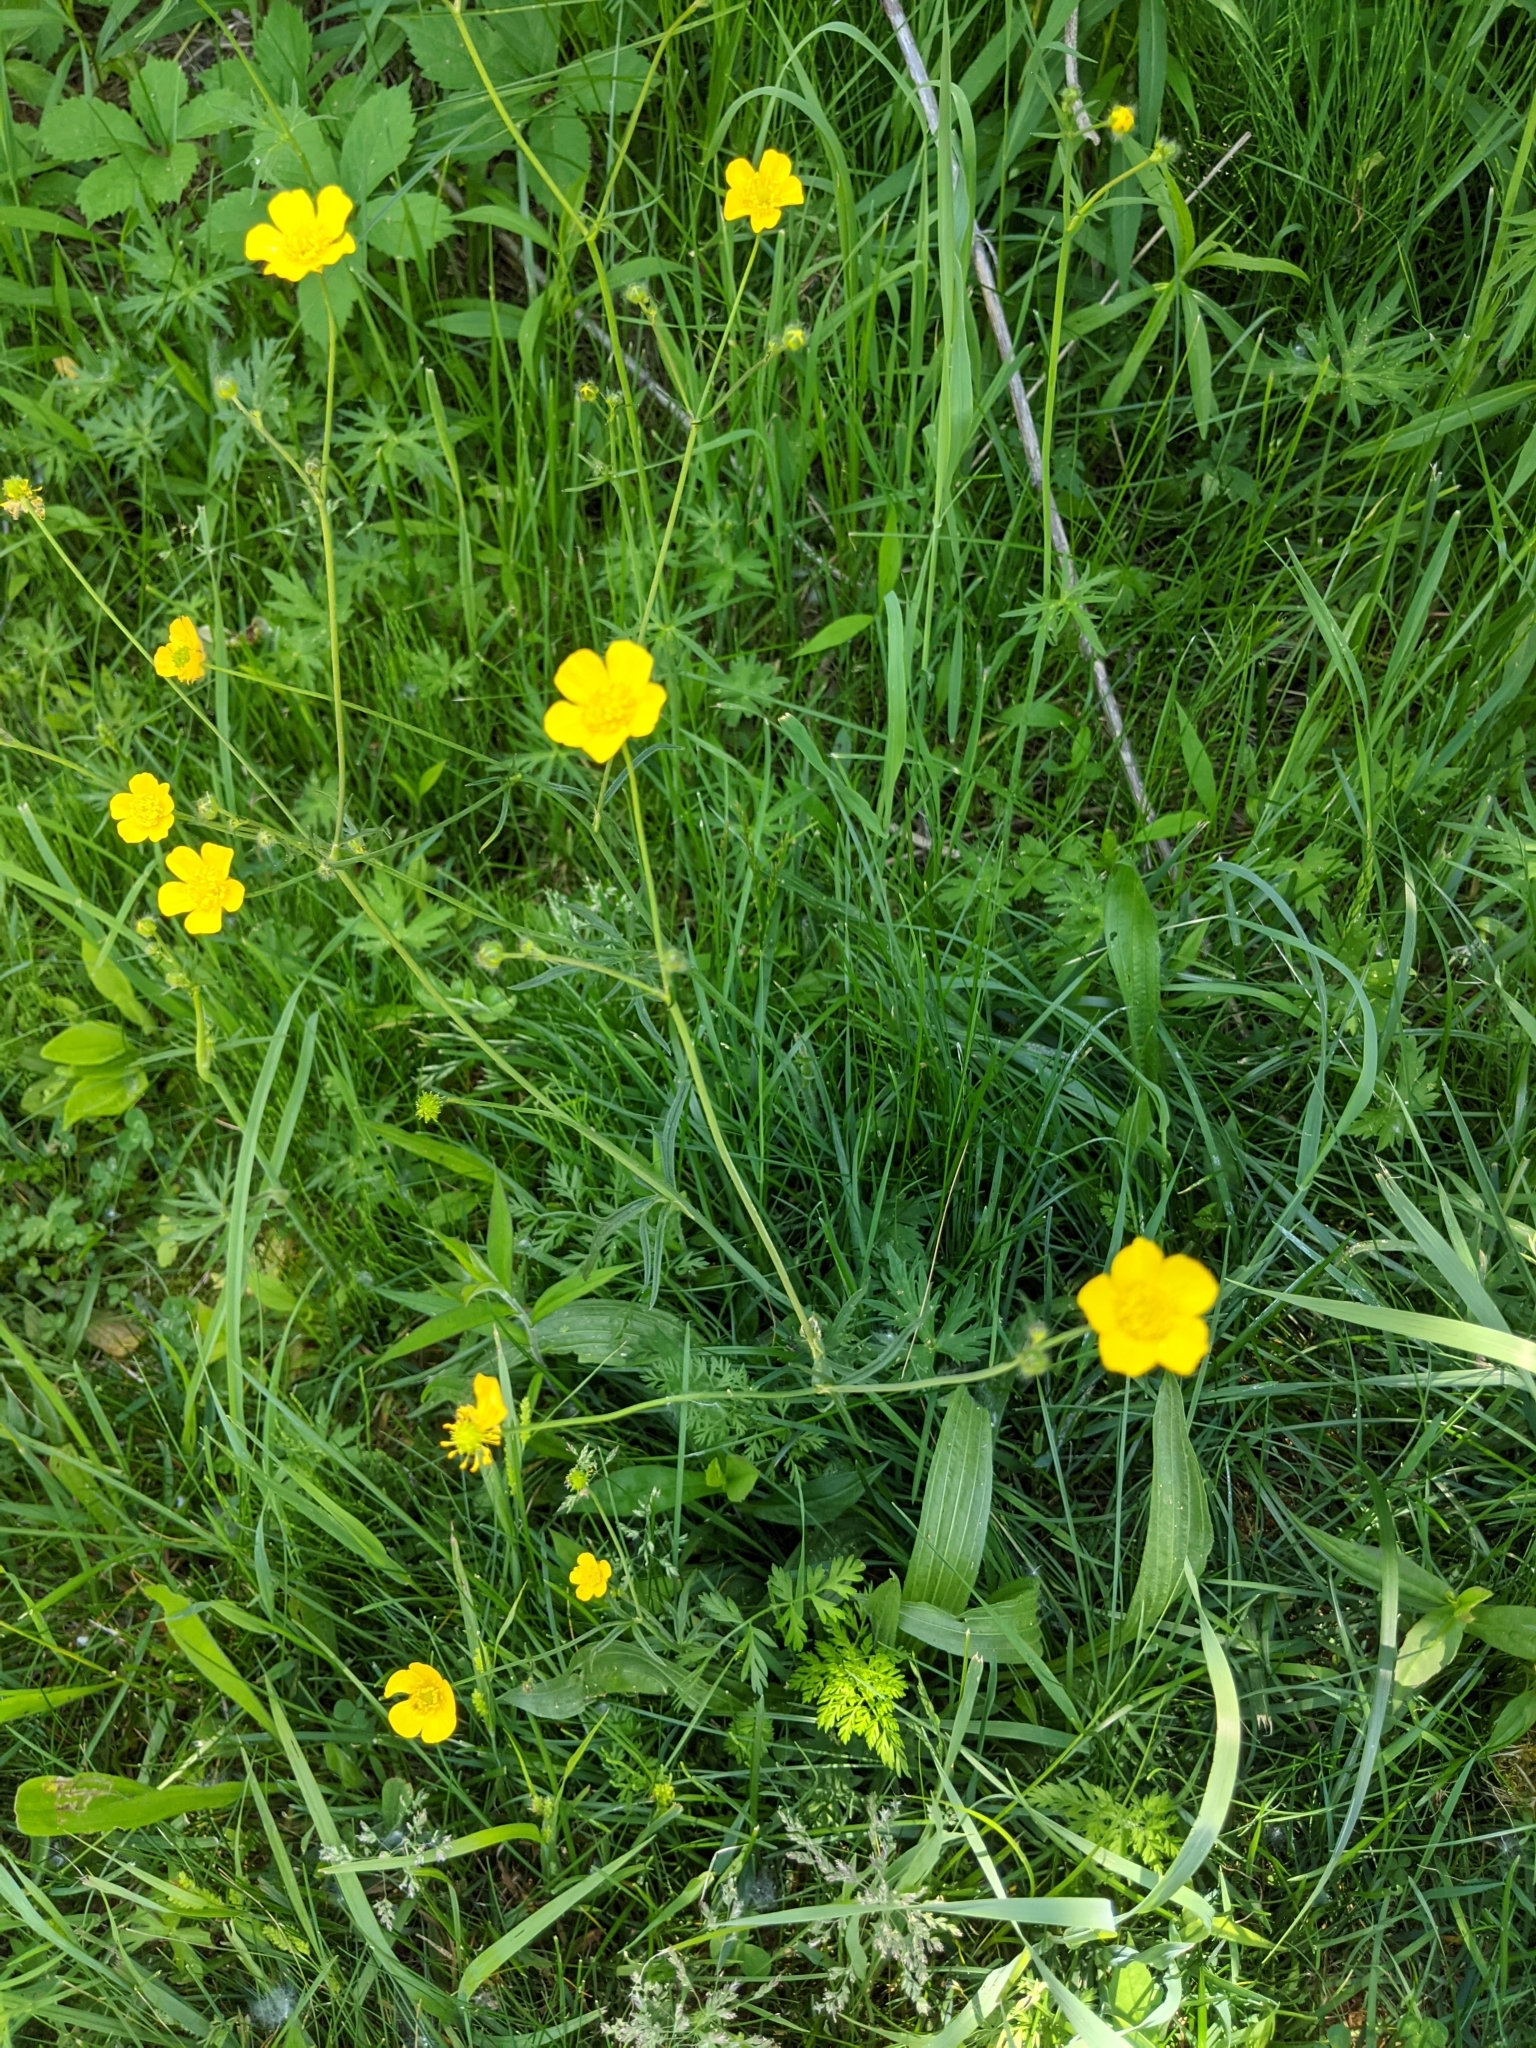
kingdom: Plantae
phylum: Tracheophyta
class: Magnoliopsida
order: Ranunculales
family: Ranunculaceae
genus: Ranunculus
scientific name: Ranunculus acris
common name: Meadow buttercup
